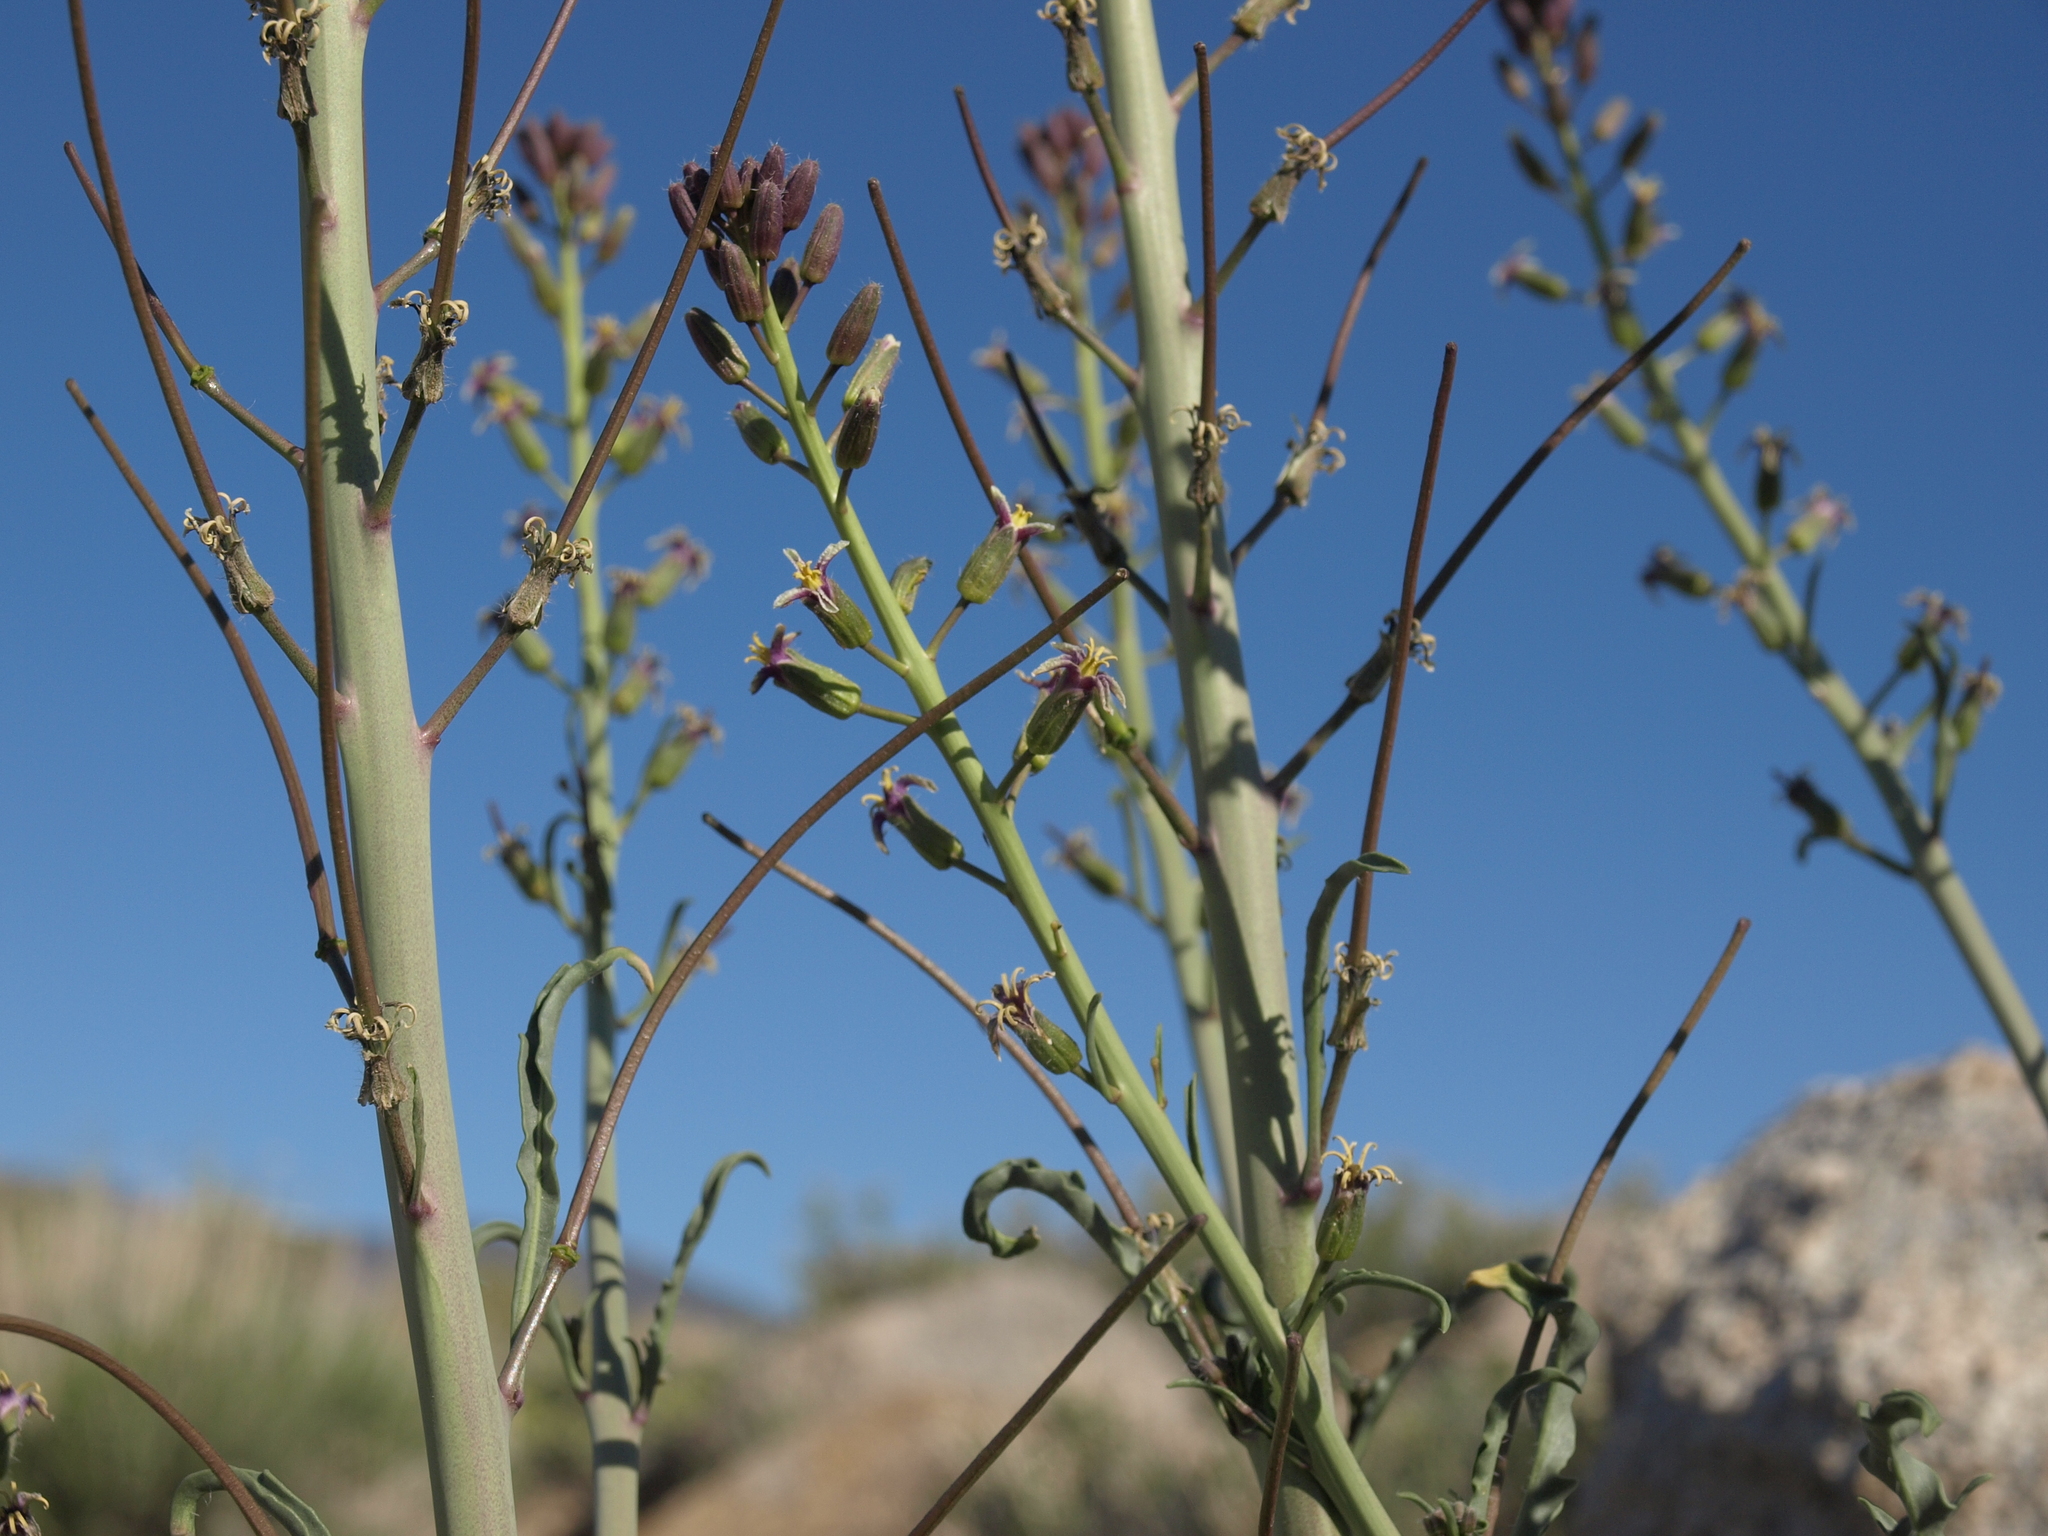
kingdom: Plantae
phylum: Tracheophyta
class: Magnoliopsida
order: Brassicales
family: Brassicaceae
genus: Streptanthus
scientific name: Streptanthus pilosus
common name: Chocolate drops
